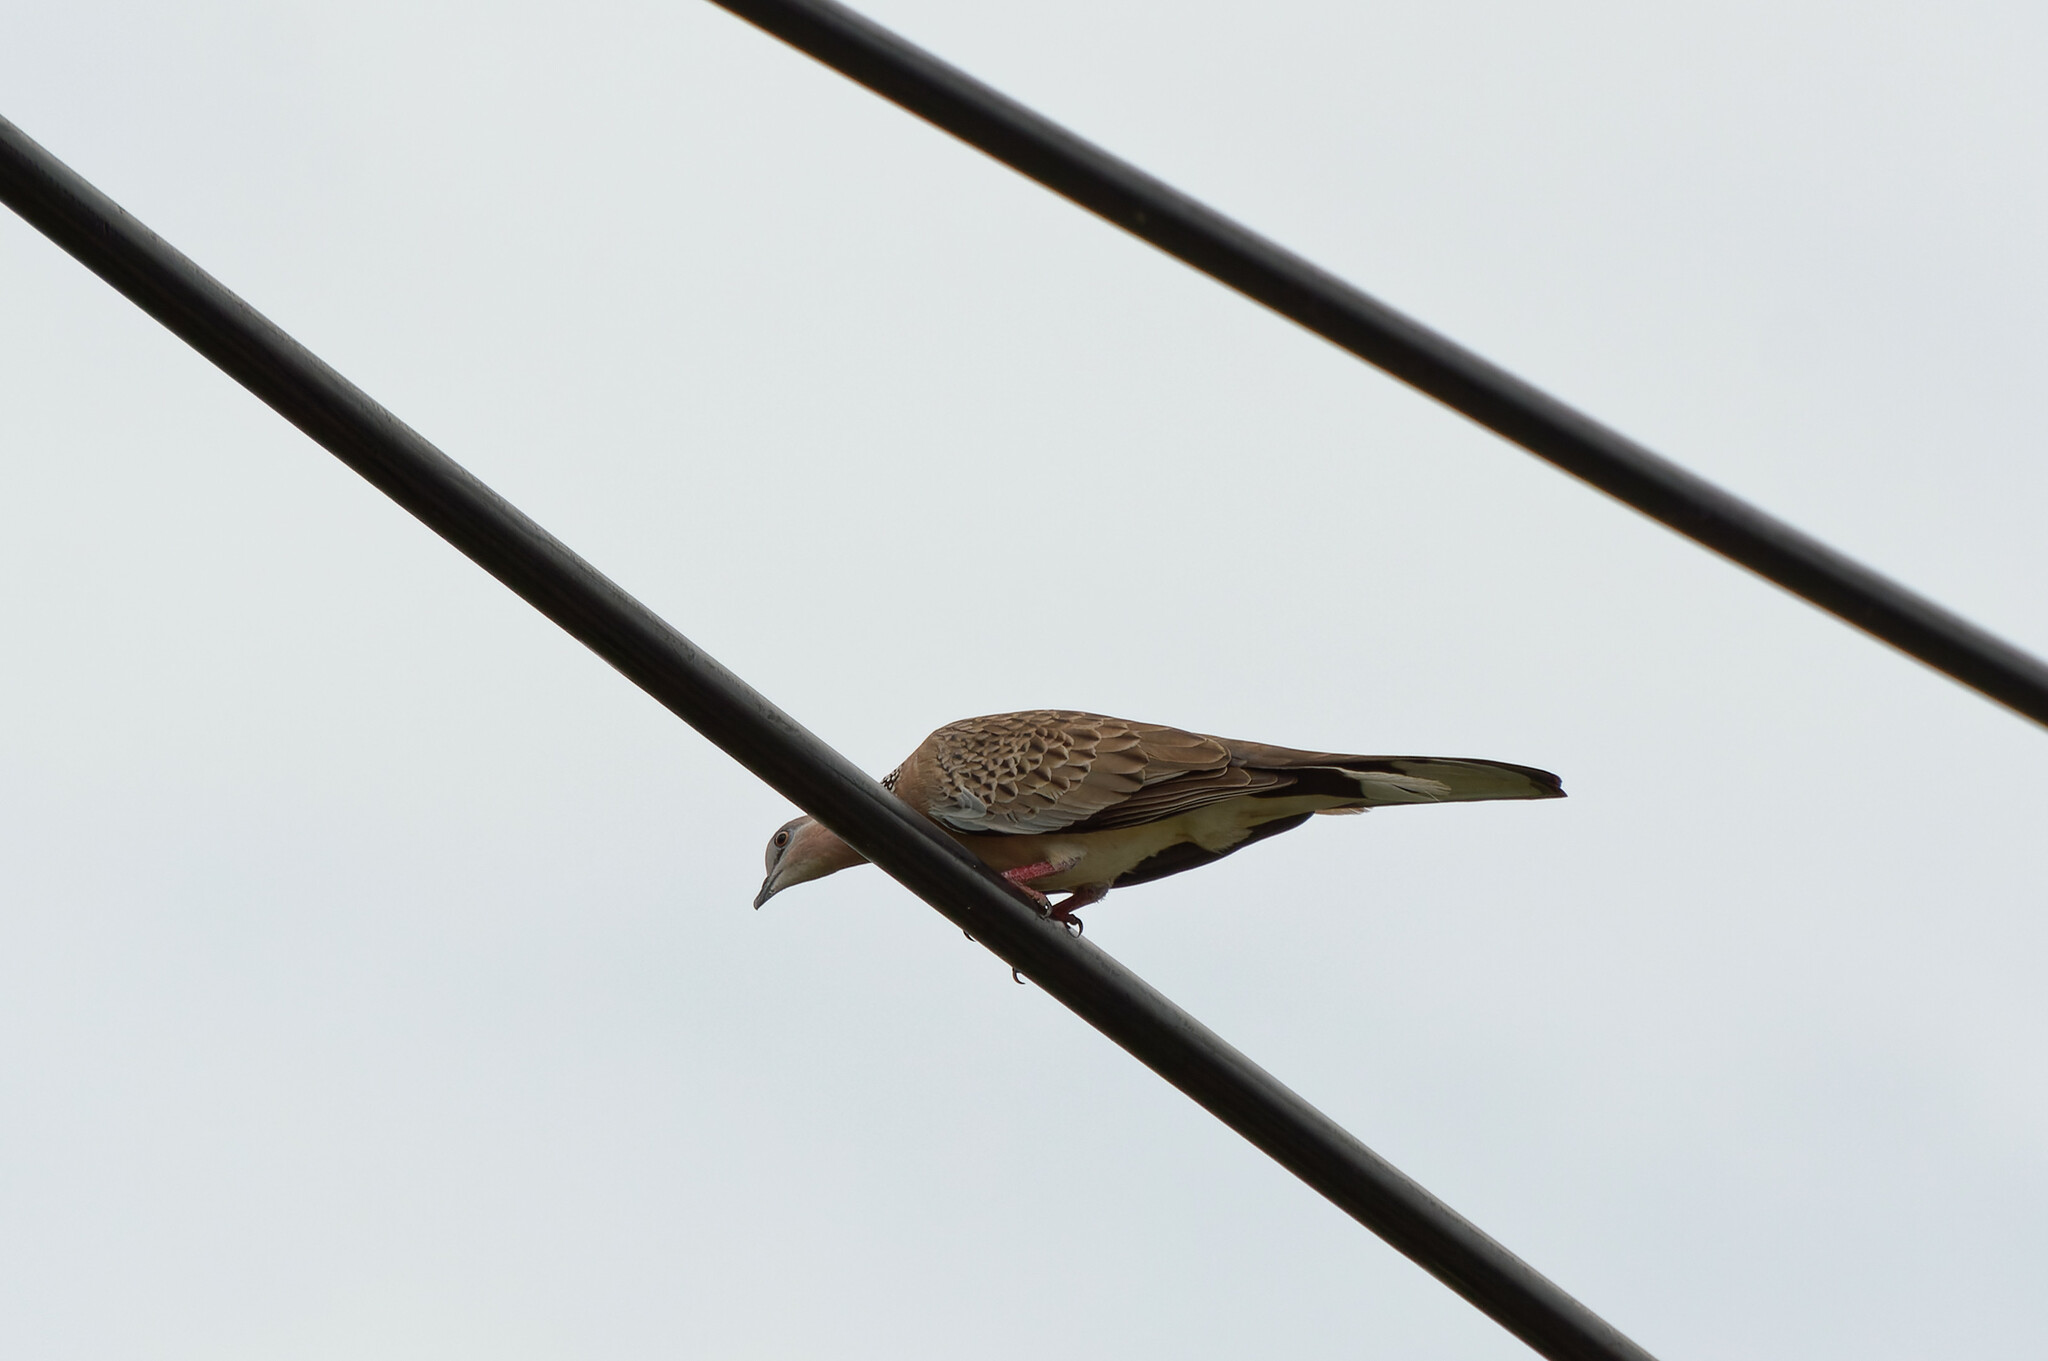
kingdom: Animalia
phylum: Chordata
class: Aves
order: Columbiformes
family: Columbidae
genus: Spilopelia
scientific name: Spilopelia chinensis
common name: Spotted dove
